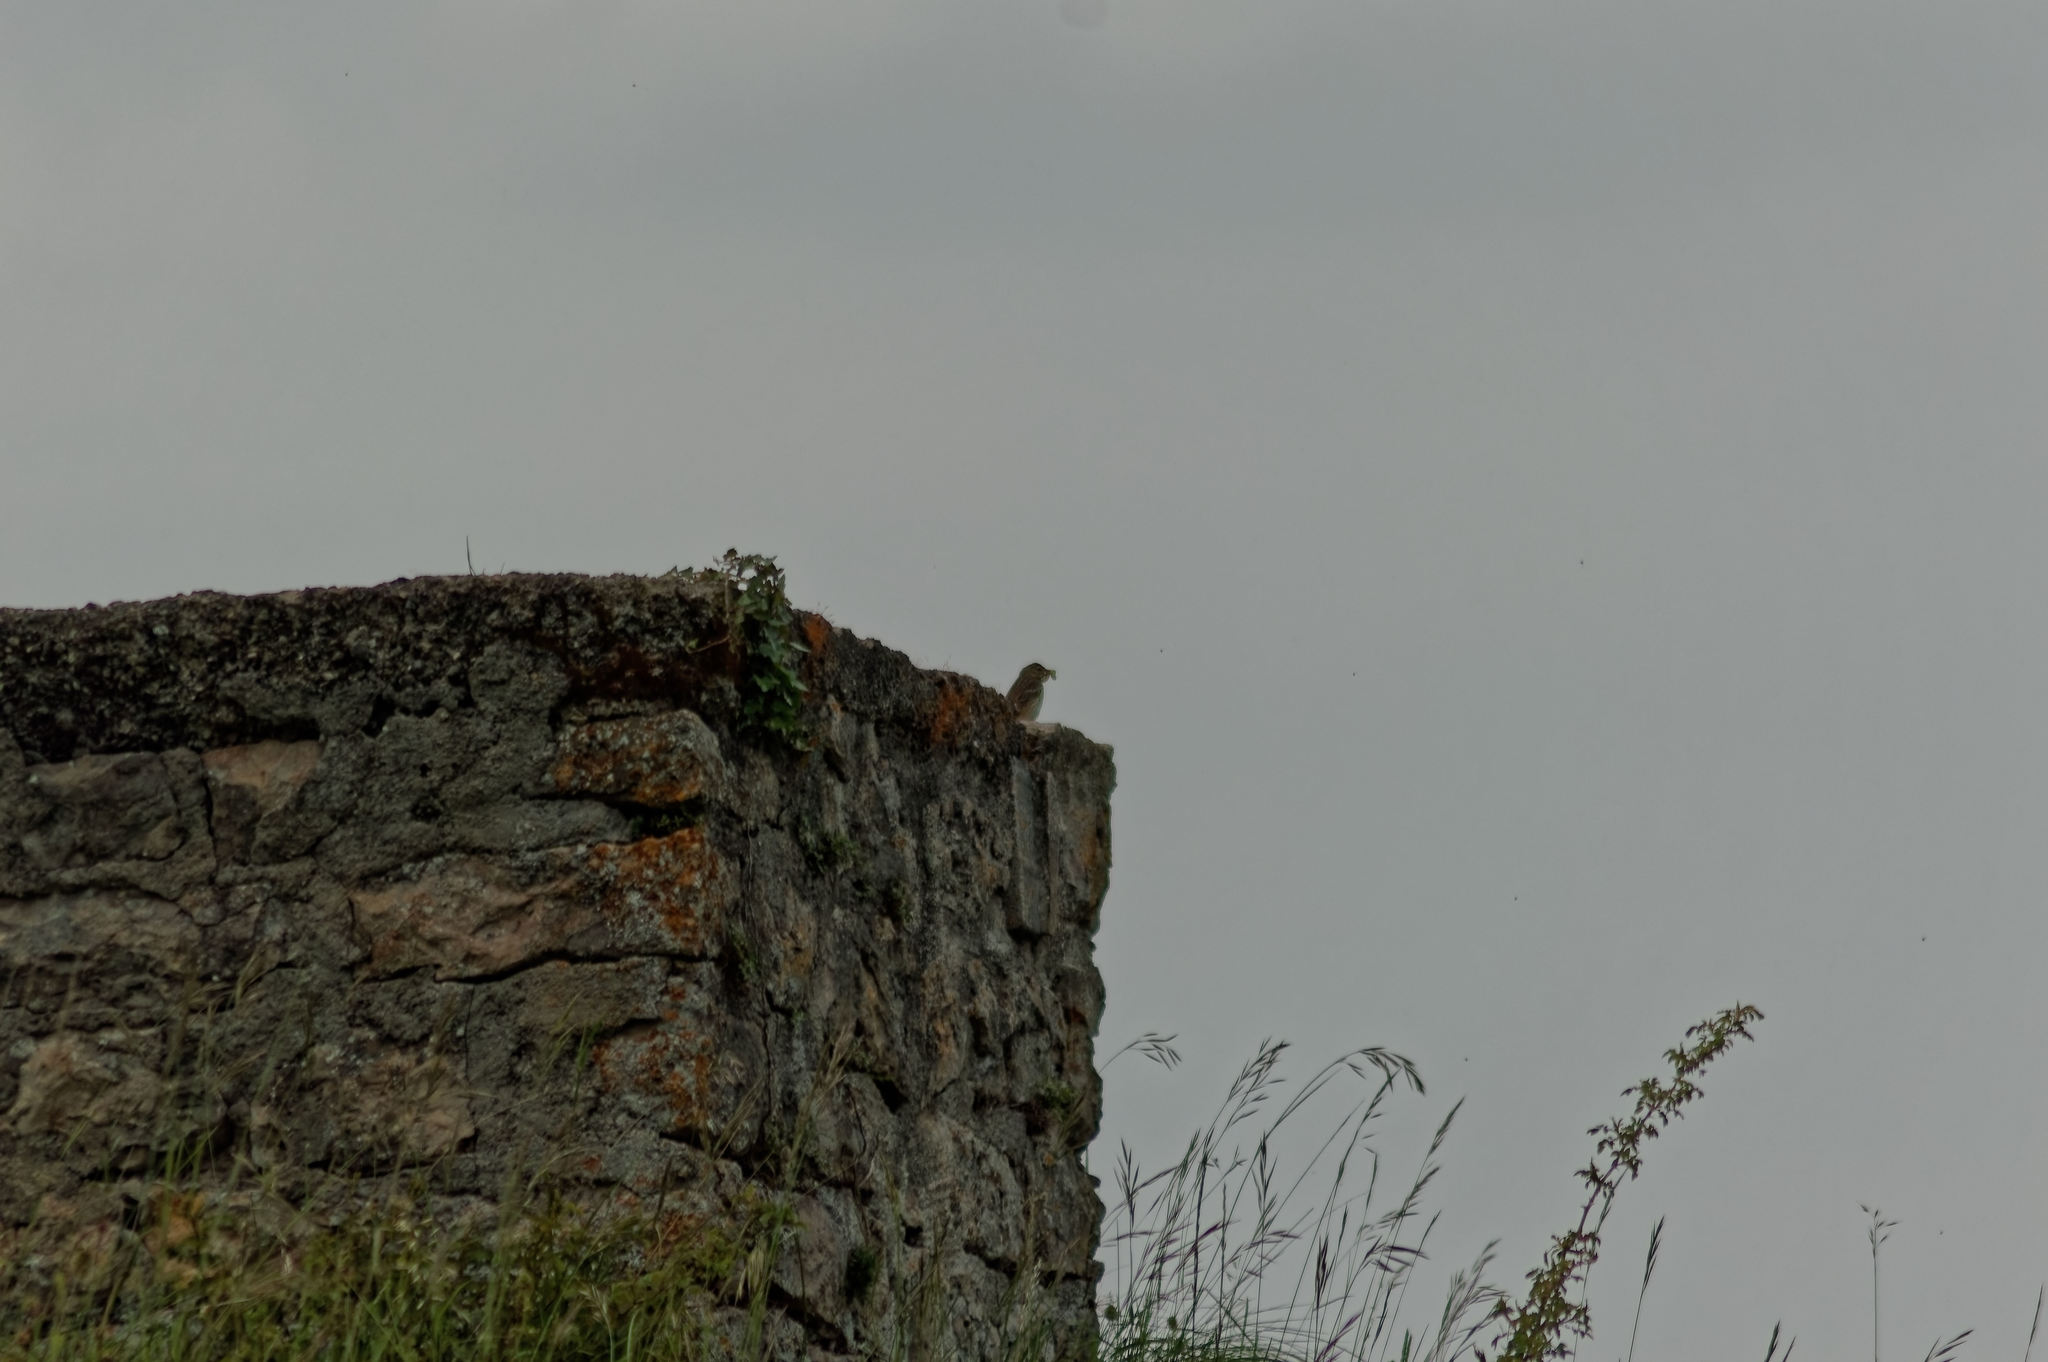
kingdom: Animalia
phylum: Chordata
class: Aves
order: Passeriformes
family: Motacillidae
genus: Anthus
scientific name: Anthus trivialis
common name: Tree pipit
